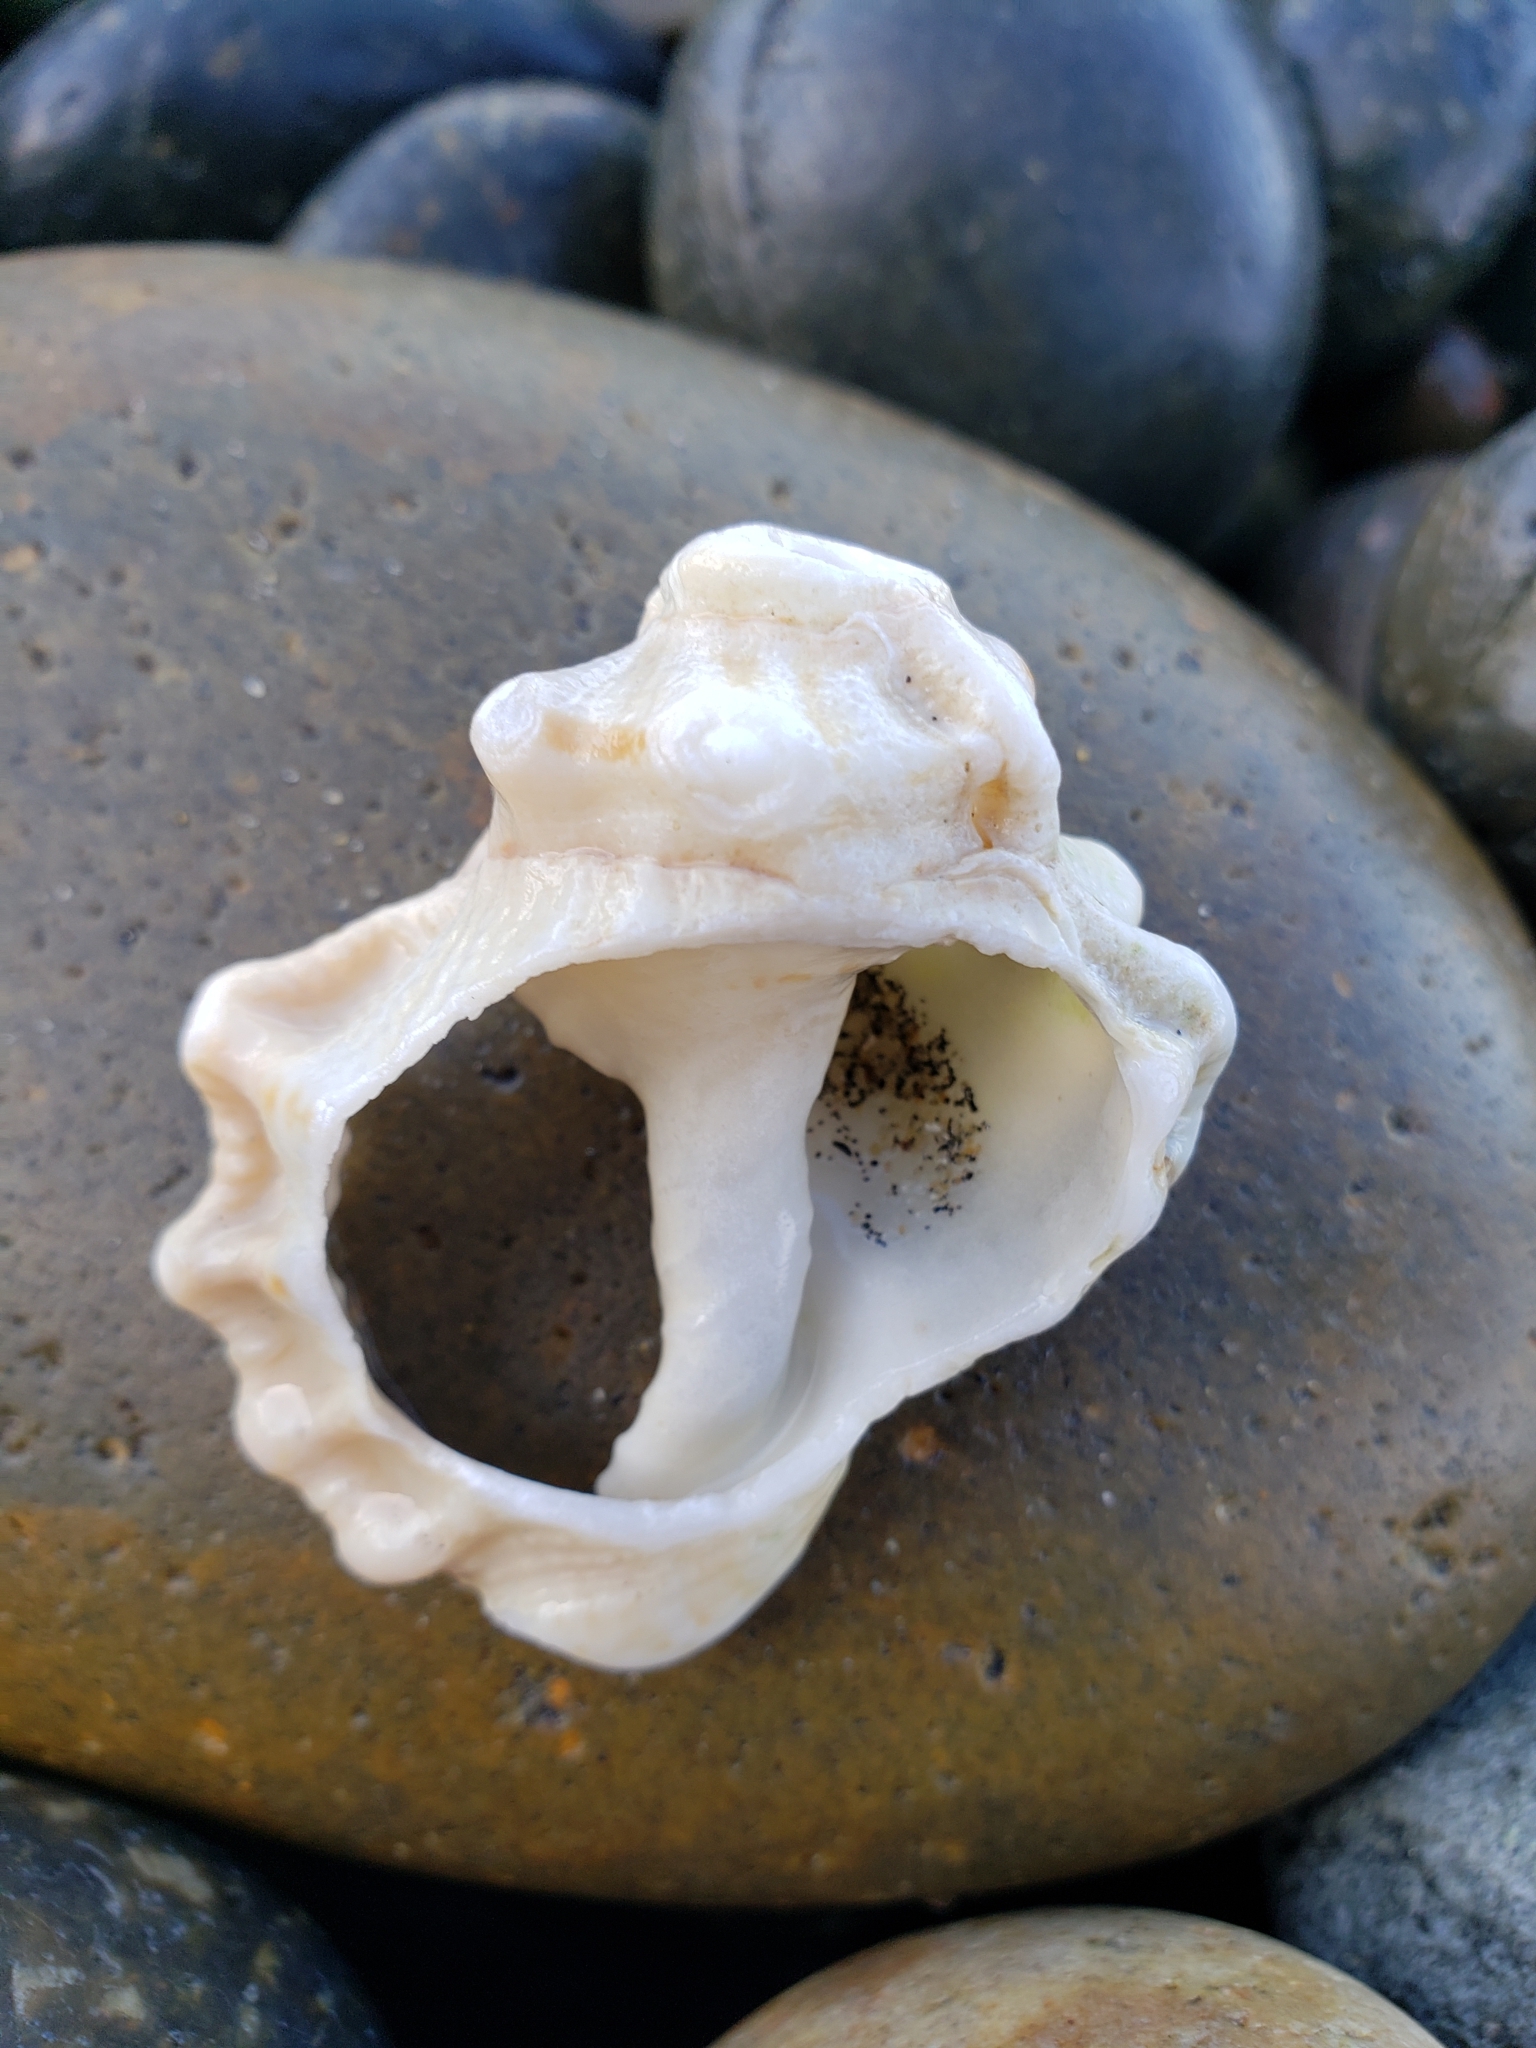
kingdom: Animalia
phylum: Mollusca
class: Gastropoda
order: Littorinimorpha
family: Bursidae
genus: Crossata
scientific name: Crossata californica
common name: California frogsnail
